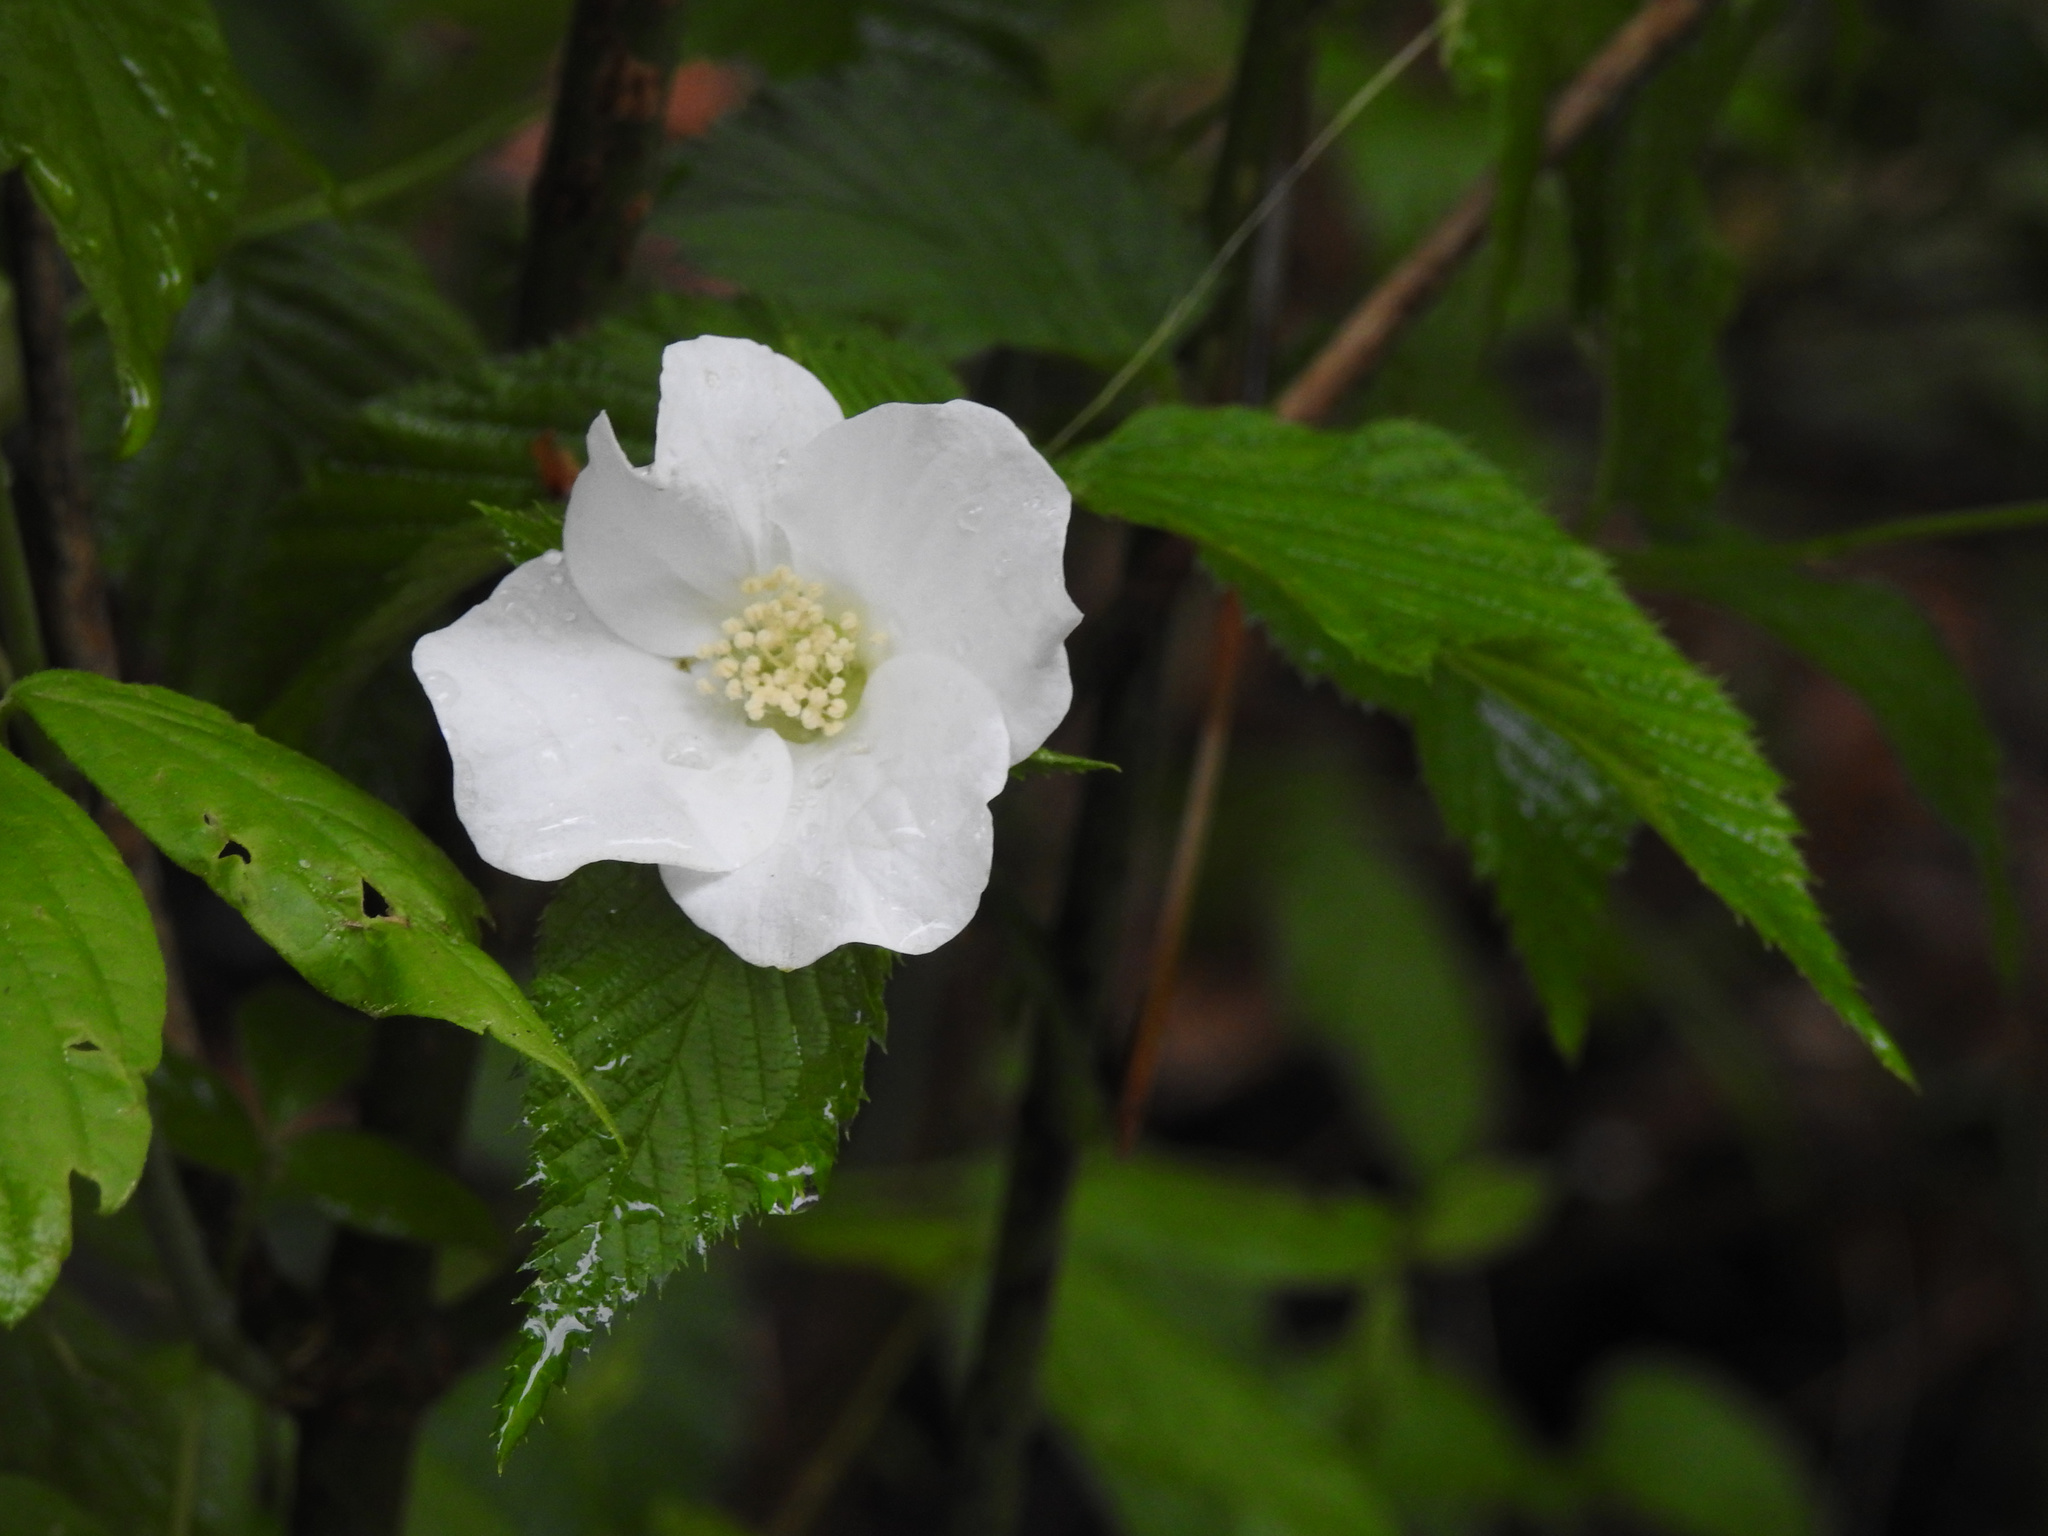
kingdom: Plantae
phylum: Tracheophyta
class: Magnoliopsida
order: Rosales
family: Rosaceae
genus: Rhodotypos
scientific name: Rhodotypos scandens
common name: Jetbead
